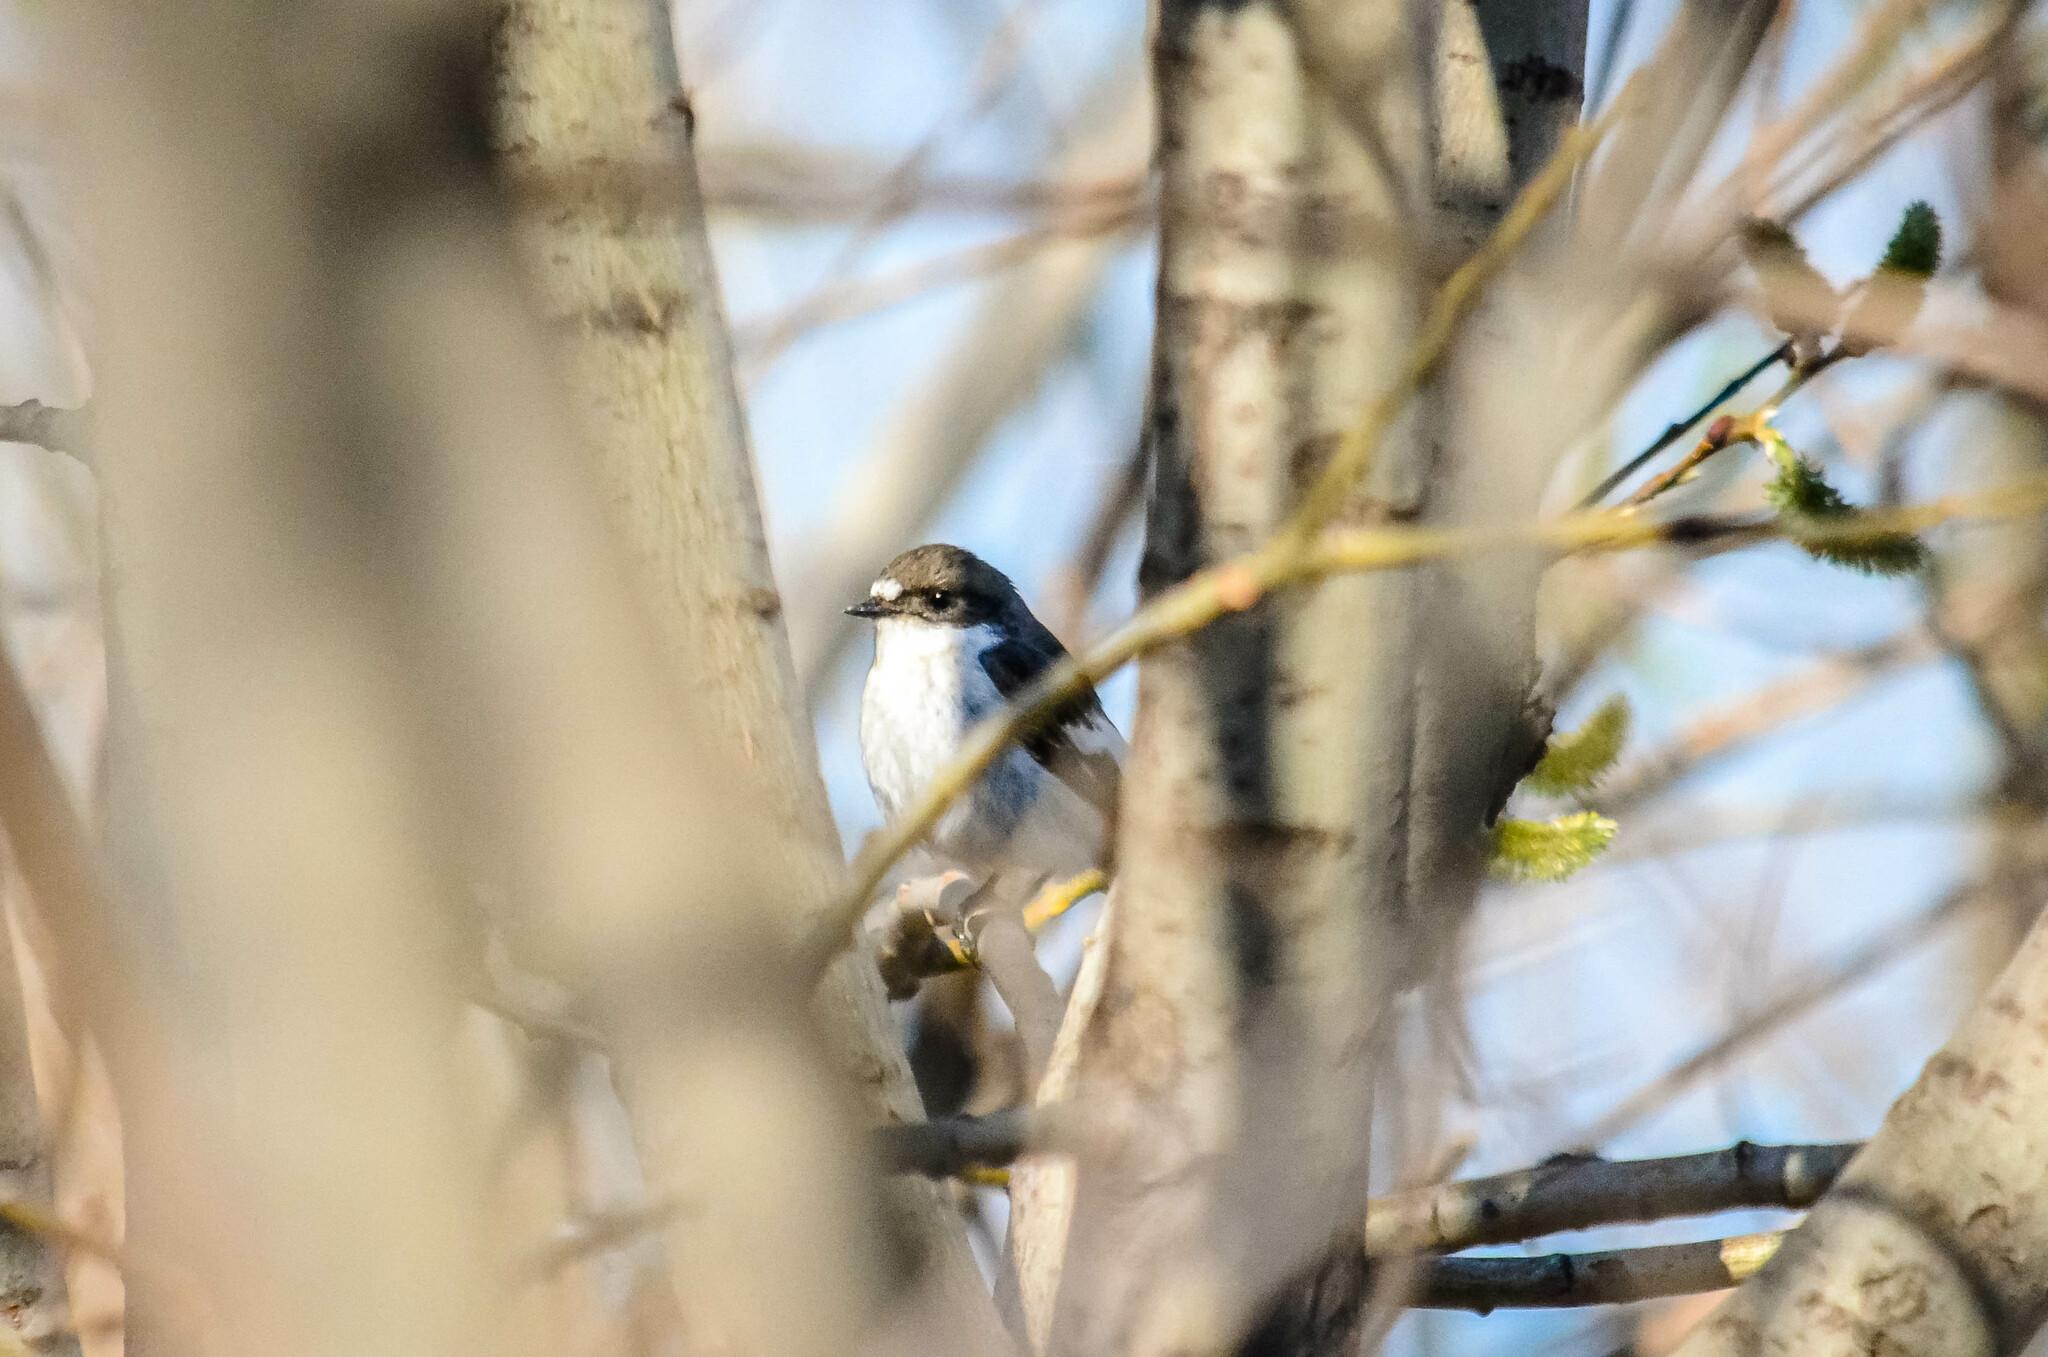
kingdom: Animalia
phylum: Chordata
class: Aves
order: Passeriformes
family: Muscicapidae
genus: Ficedula
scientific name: Ficedula hypoleuca
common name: European pied flycatcher
